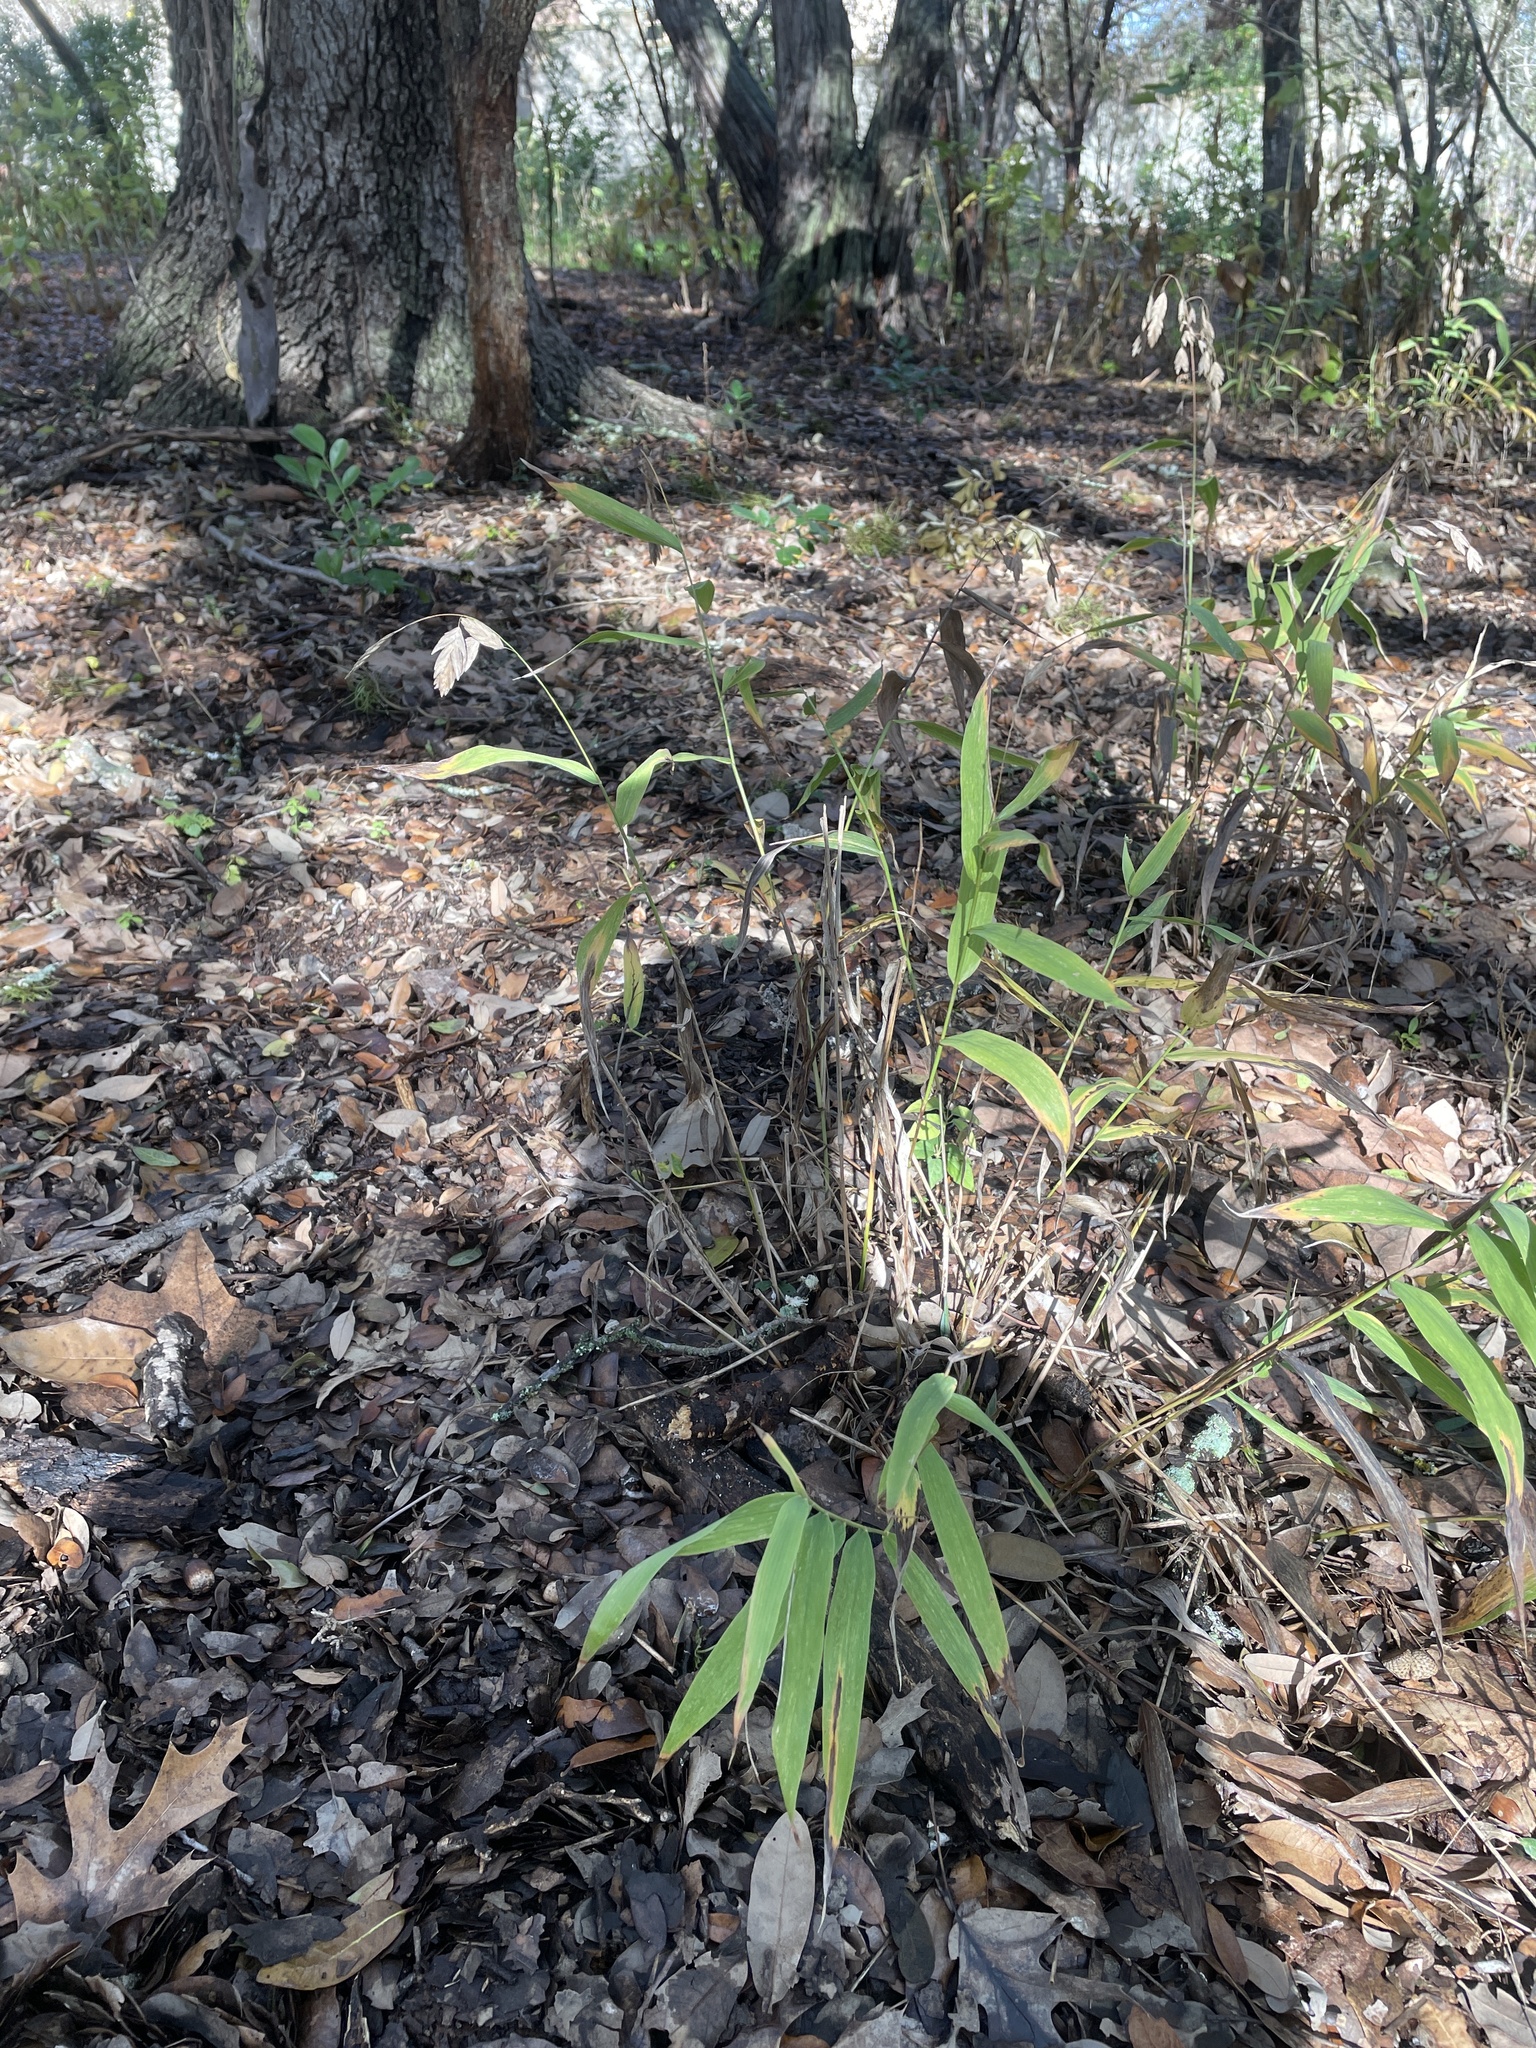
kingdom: Plantae
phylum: Tracheophyta
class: Liliopsida
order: Poales
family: Poaceae
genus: Chasmanthium
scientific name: Chasmanthium latifolium
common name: Broad-leaved chasmanthium
